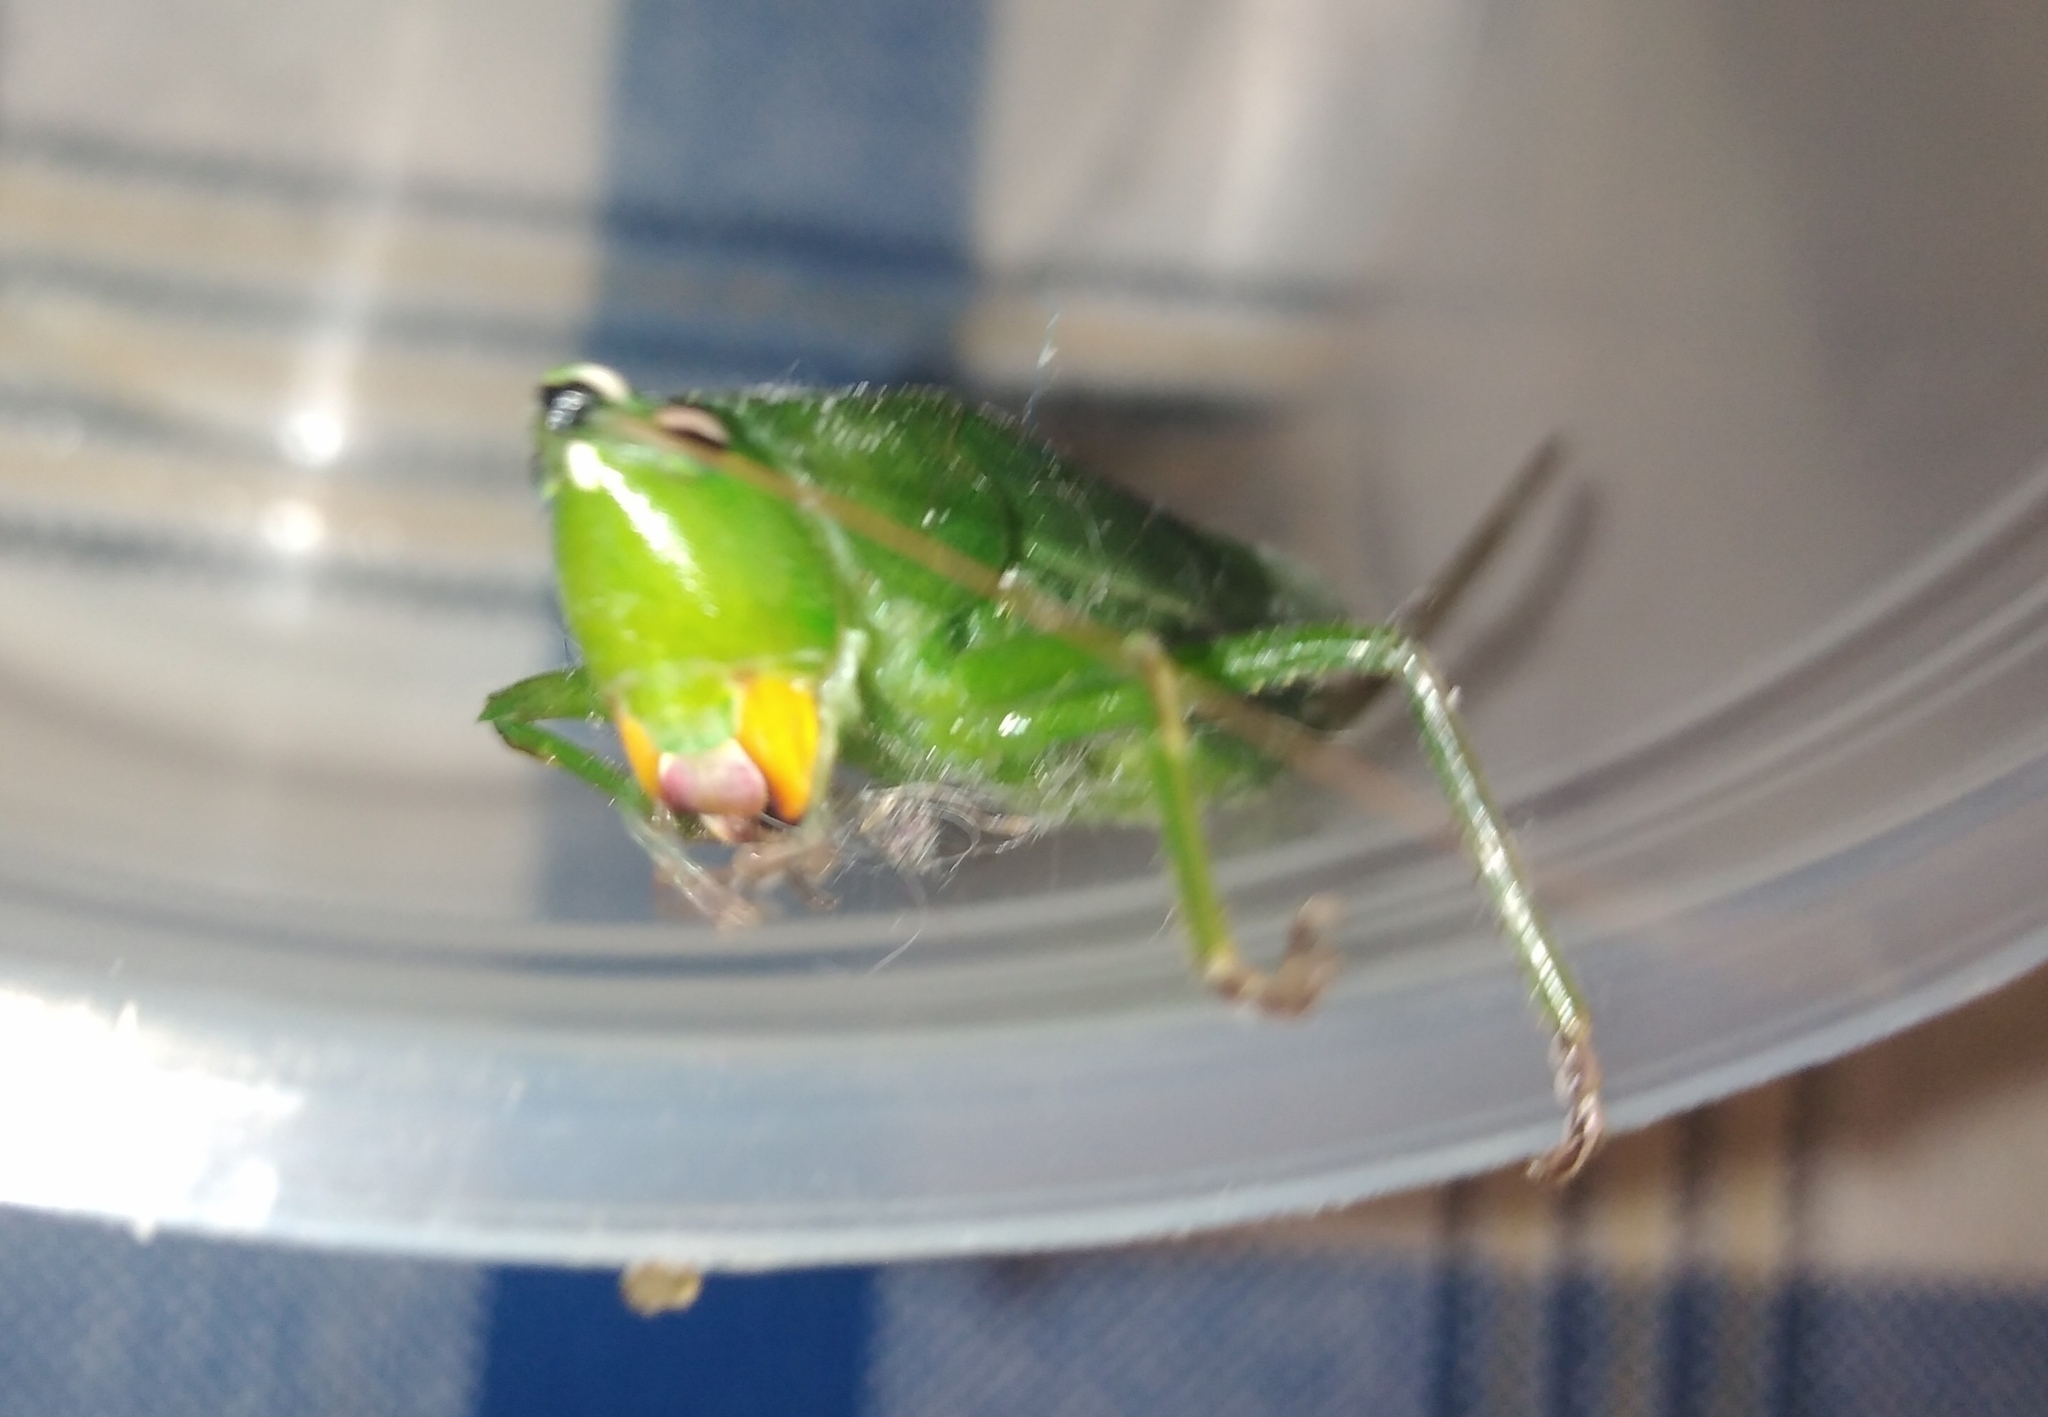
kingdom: Animalia
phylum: Arthropoda
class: Insecta
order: Orthoptera
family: Tettigoniidae
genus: Neoconocephalus
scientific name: Neoconocephalus brevis
